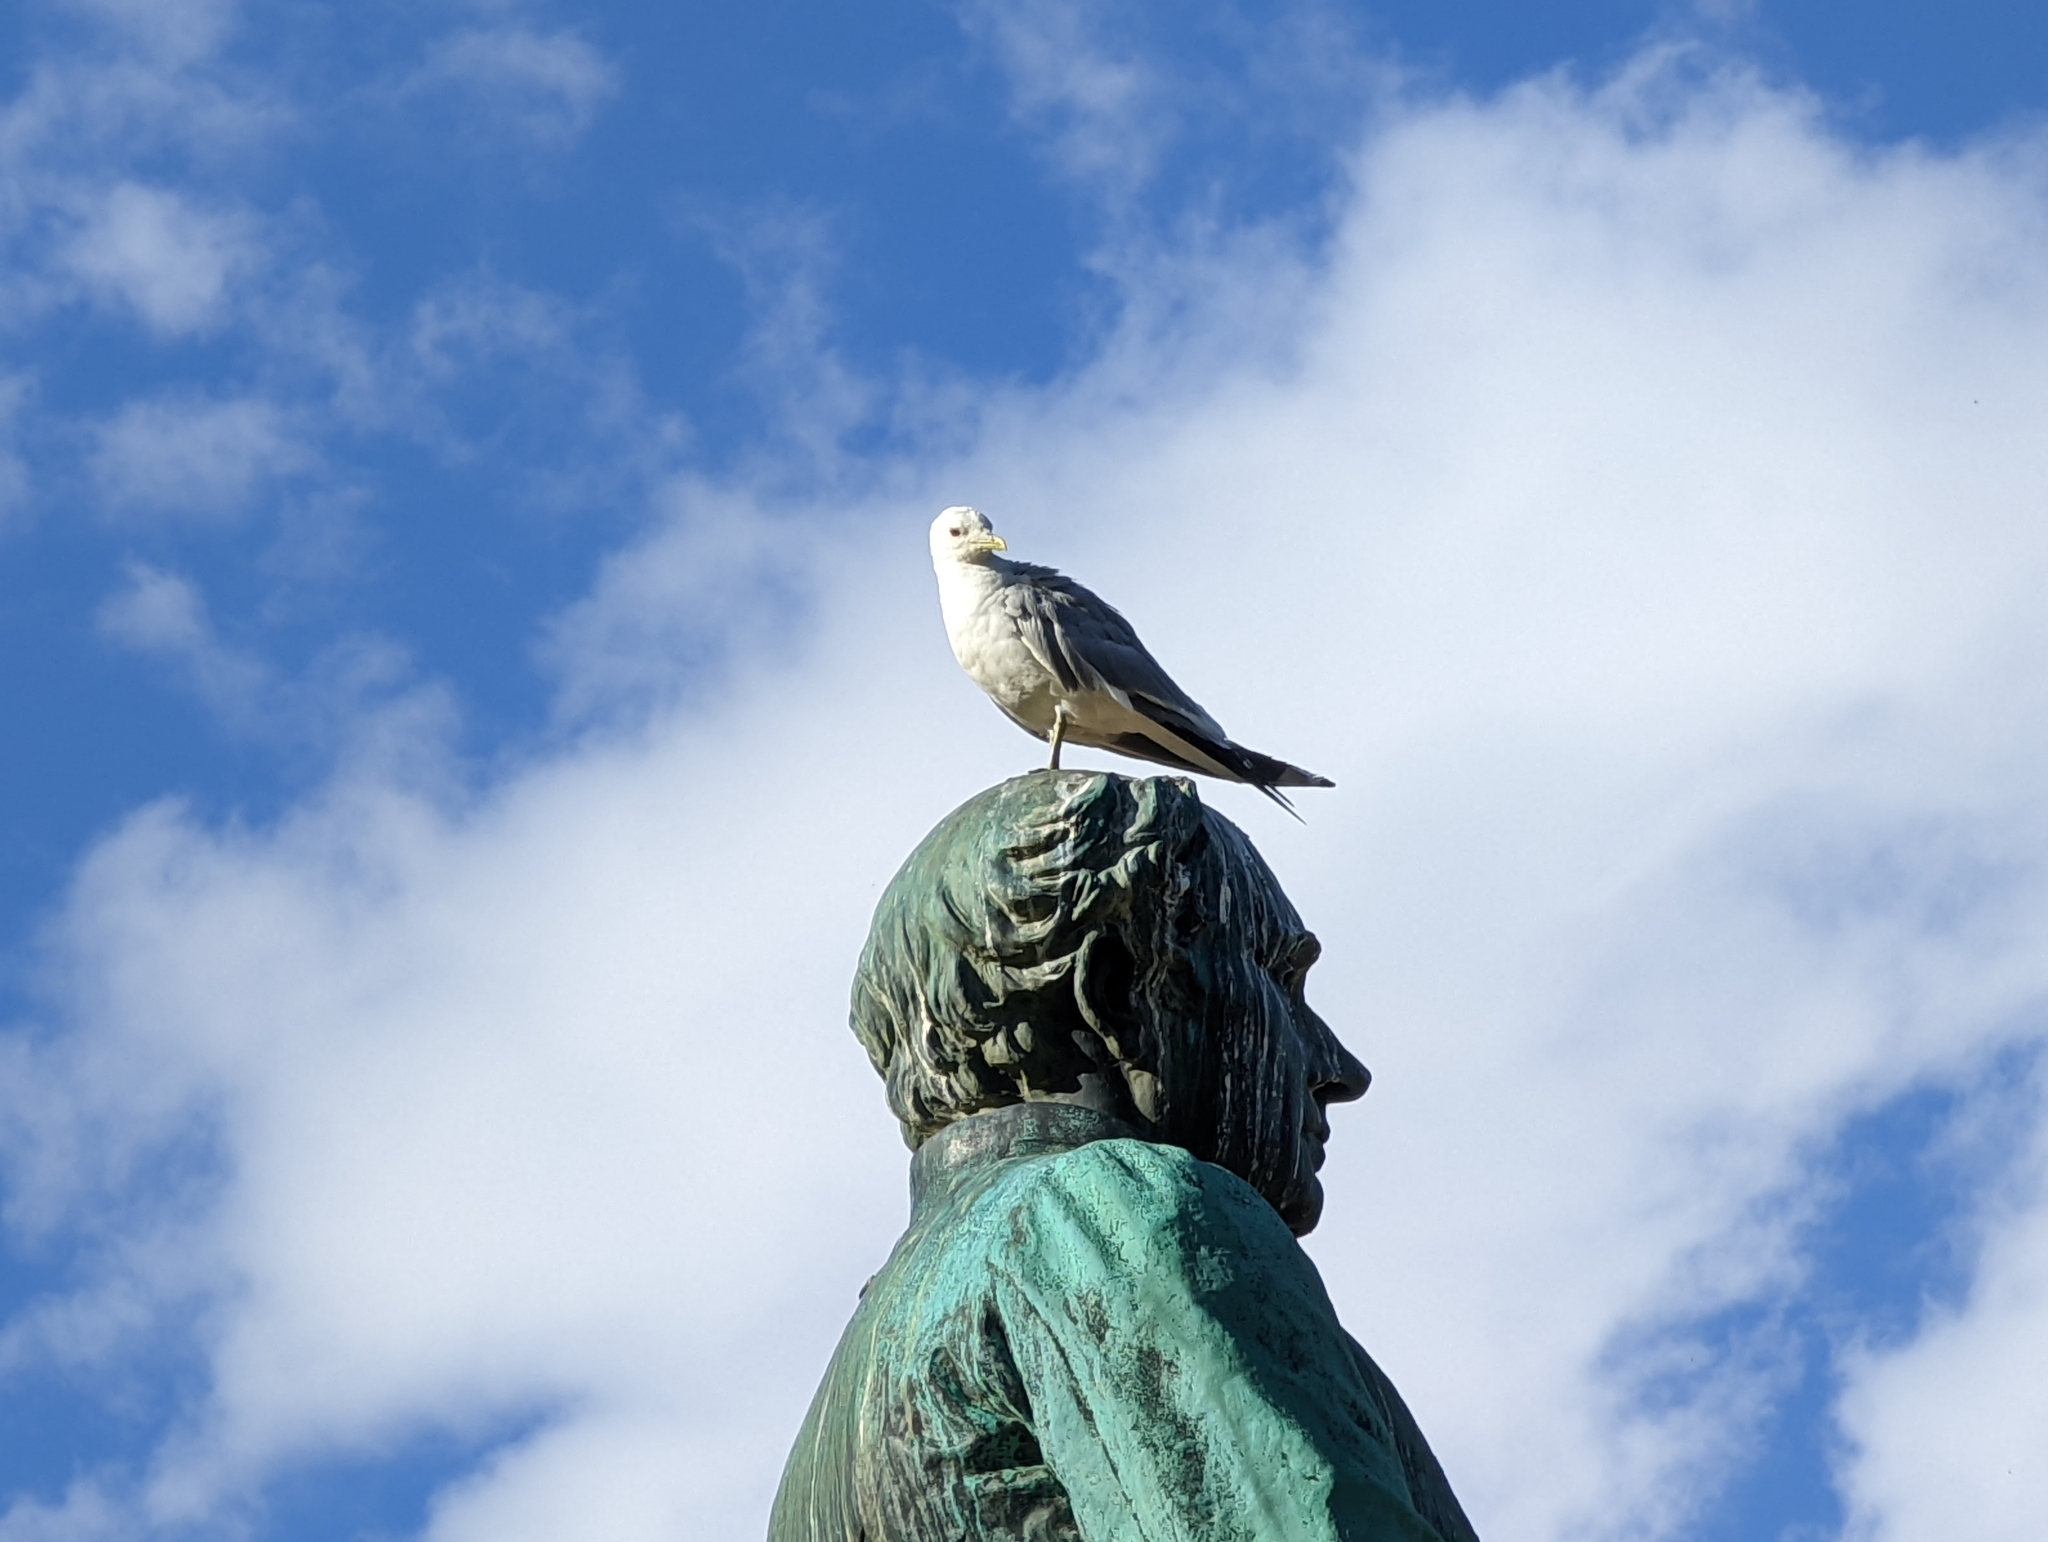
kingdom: Animalia
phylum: Chordata
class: Aves
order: Charadriiformes
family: Laridae
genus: Larus
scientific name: Larus canus
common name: Mew gull
